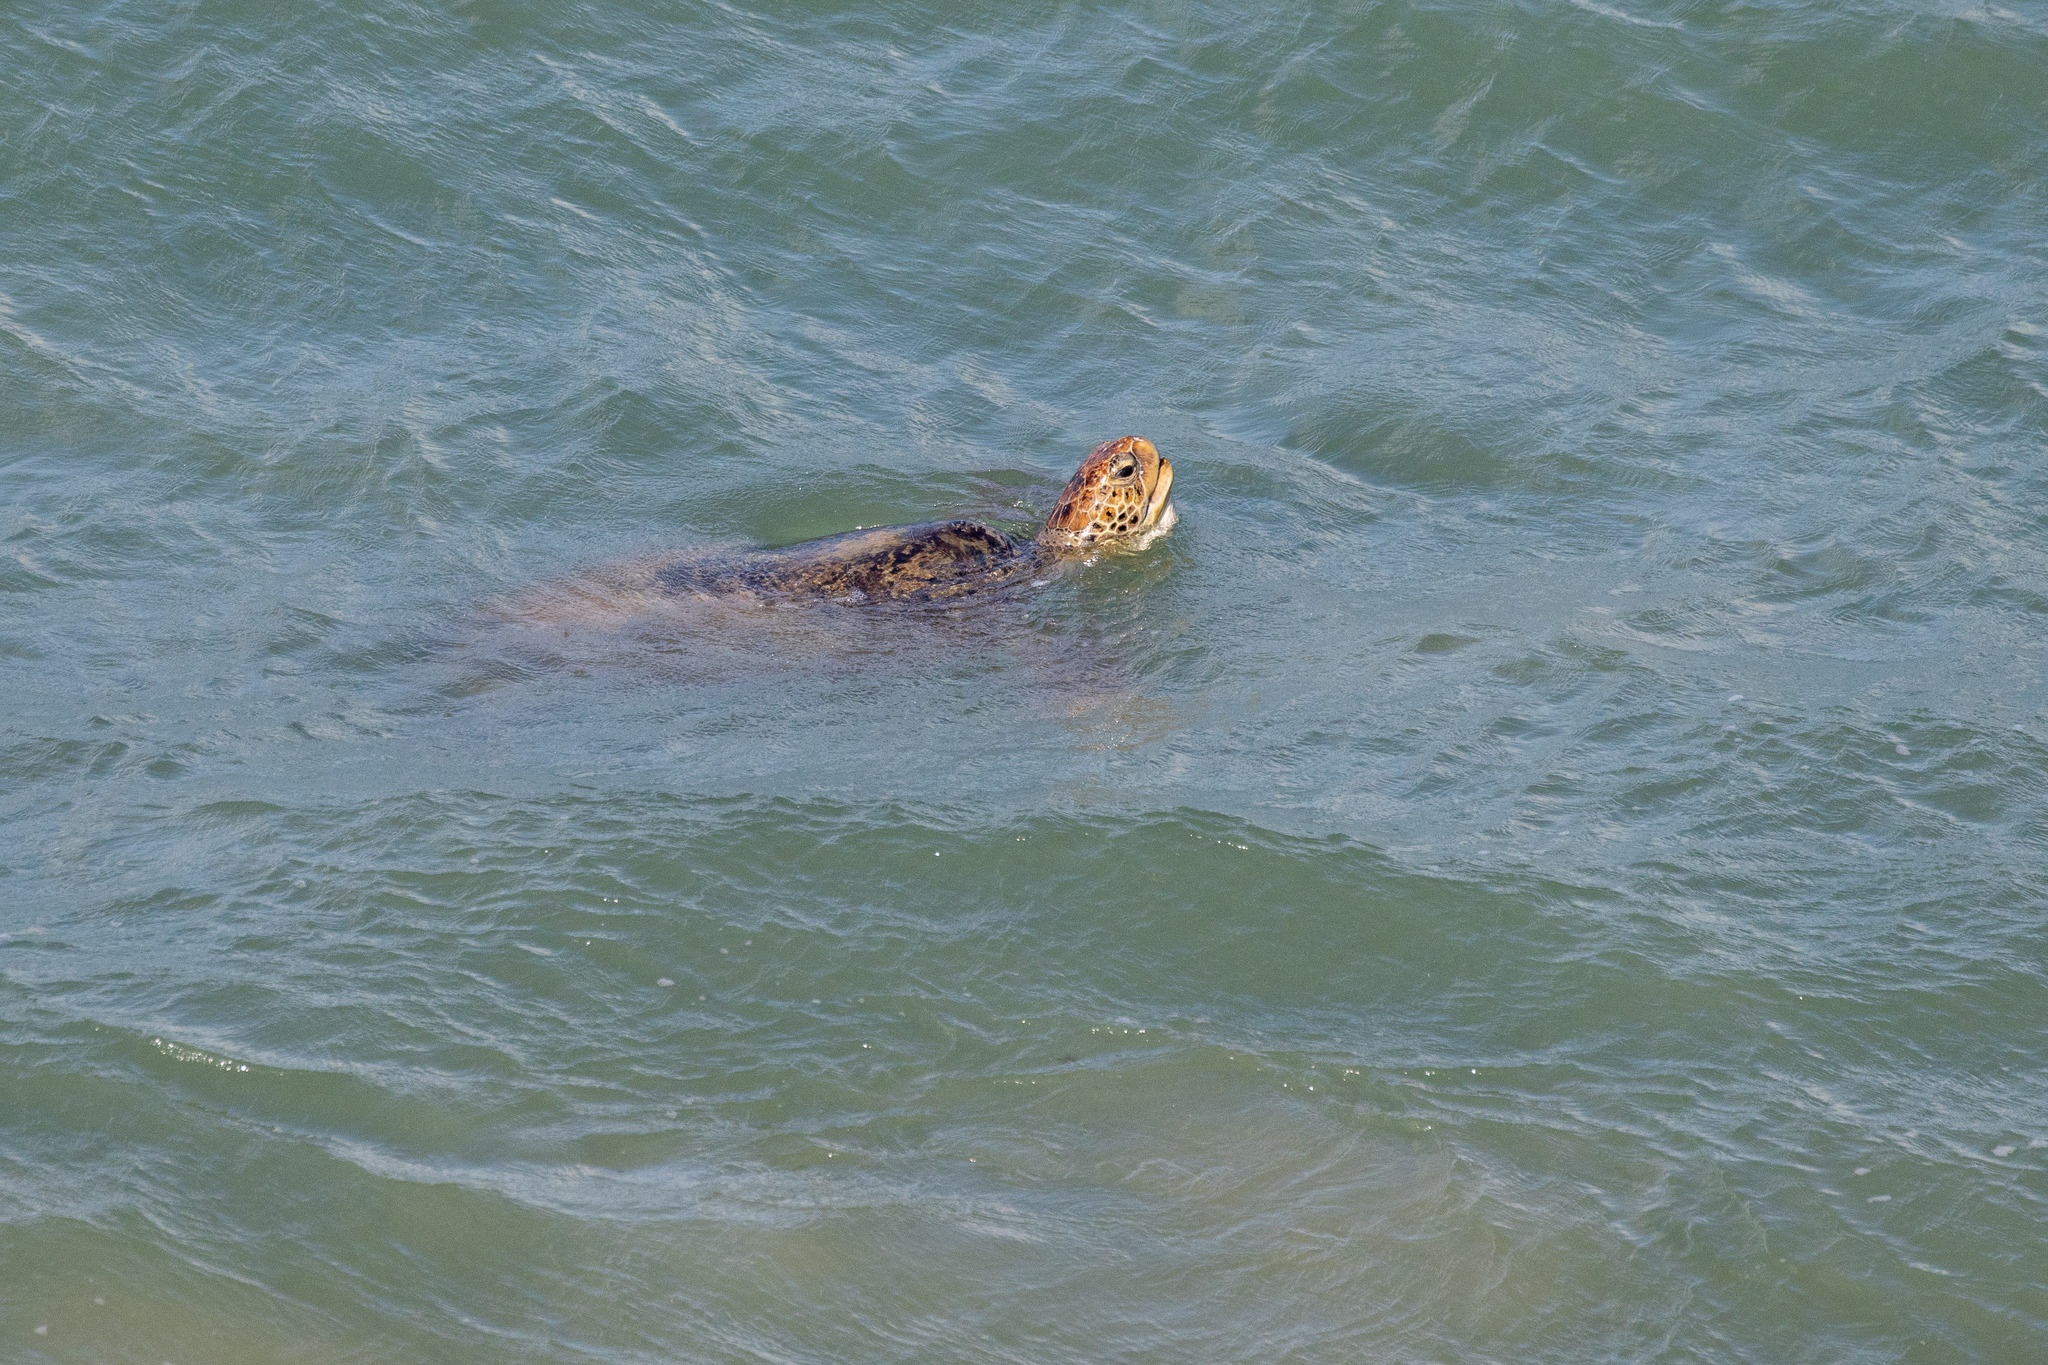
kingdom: Animalia
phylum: Chordata
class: Testudines
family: Cheloniidae
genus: Chelonia
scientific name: Chelonia mydas
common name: Green turtle
